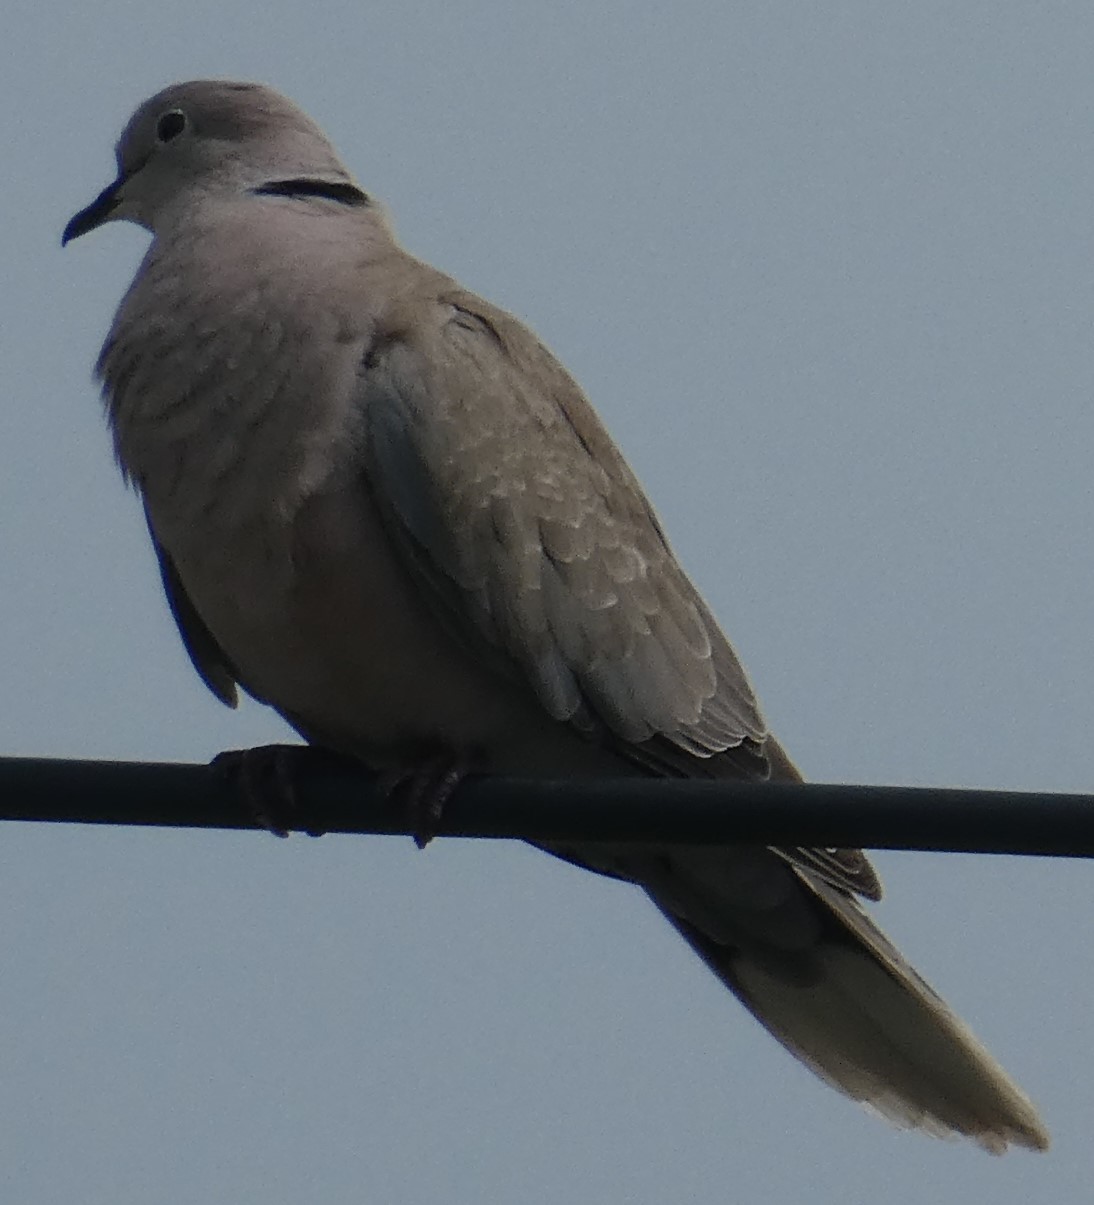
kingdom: Animalia
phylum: Chordata
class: Aves
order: Columbiformes
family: Columbidae
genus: Streptopelia
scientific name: Streptopelia decaocto
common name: Eurasian collared dove
